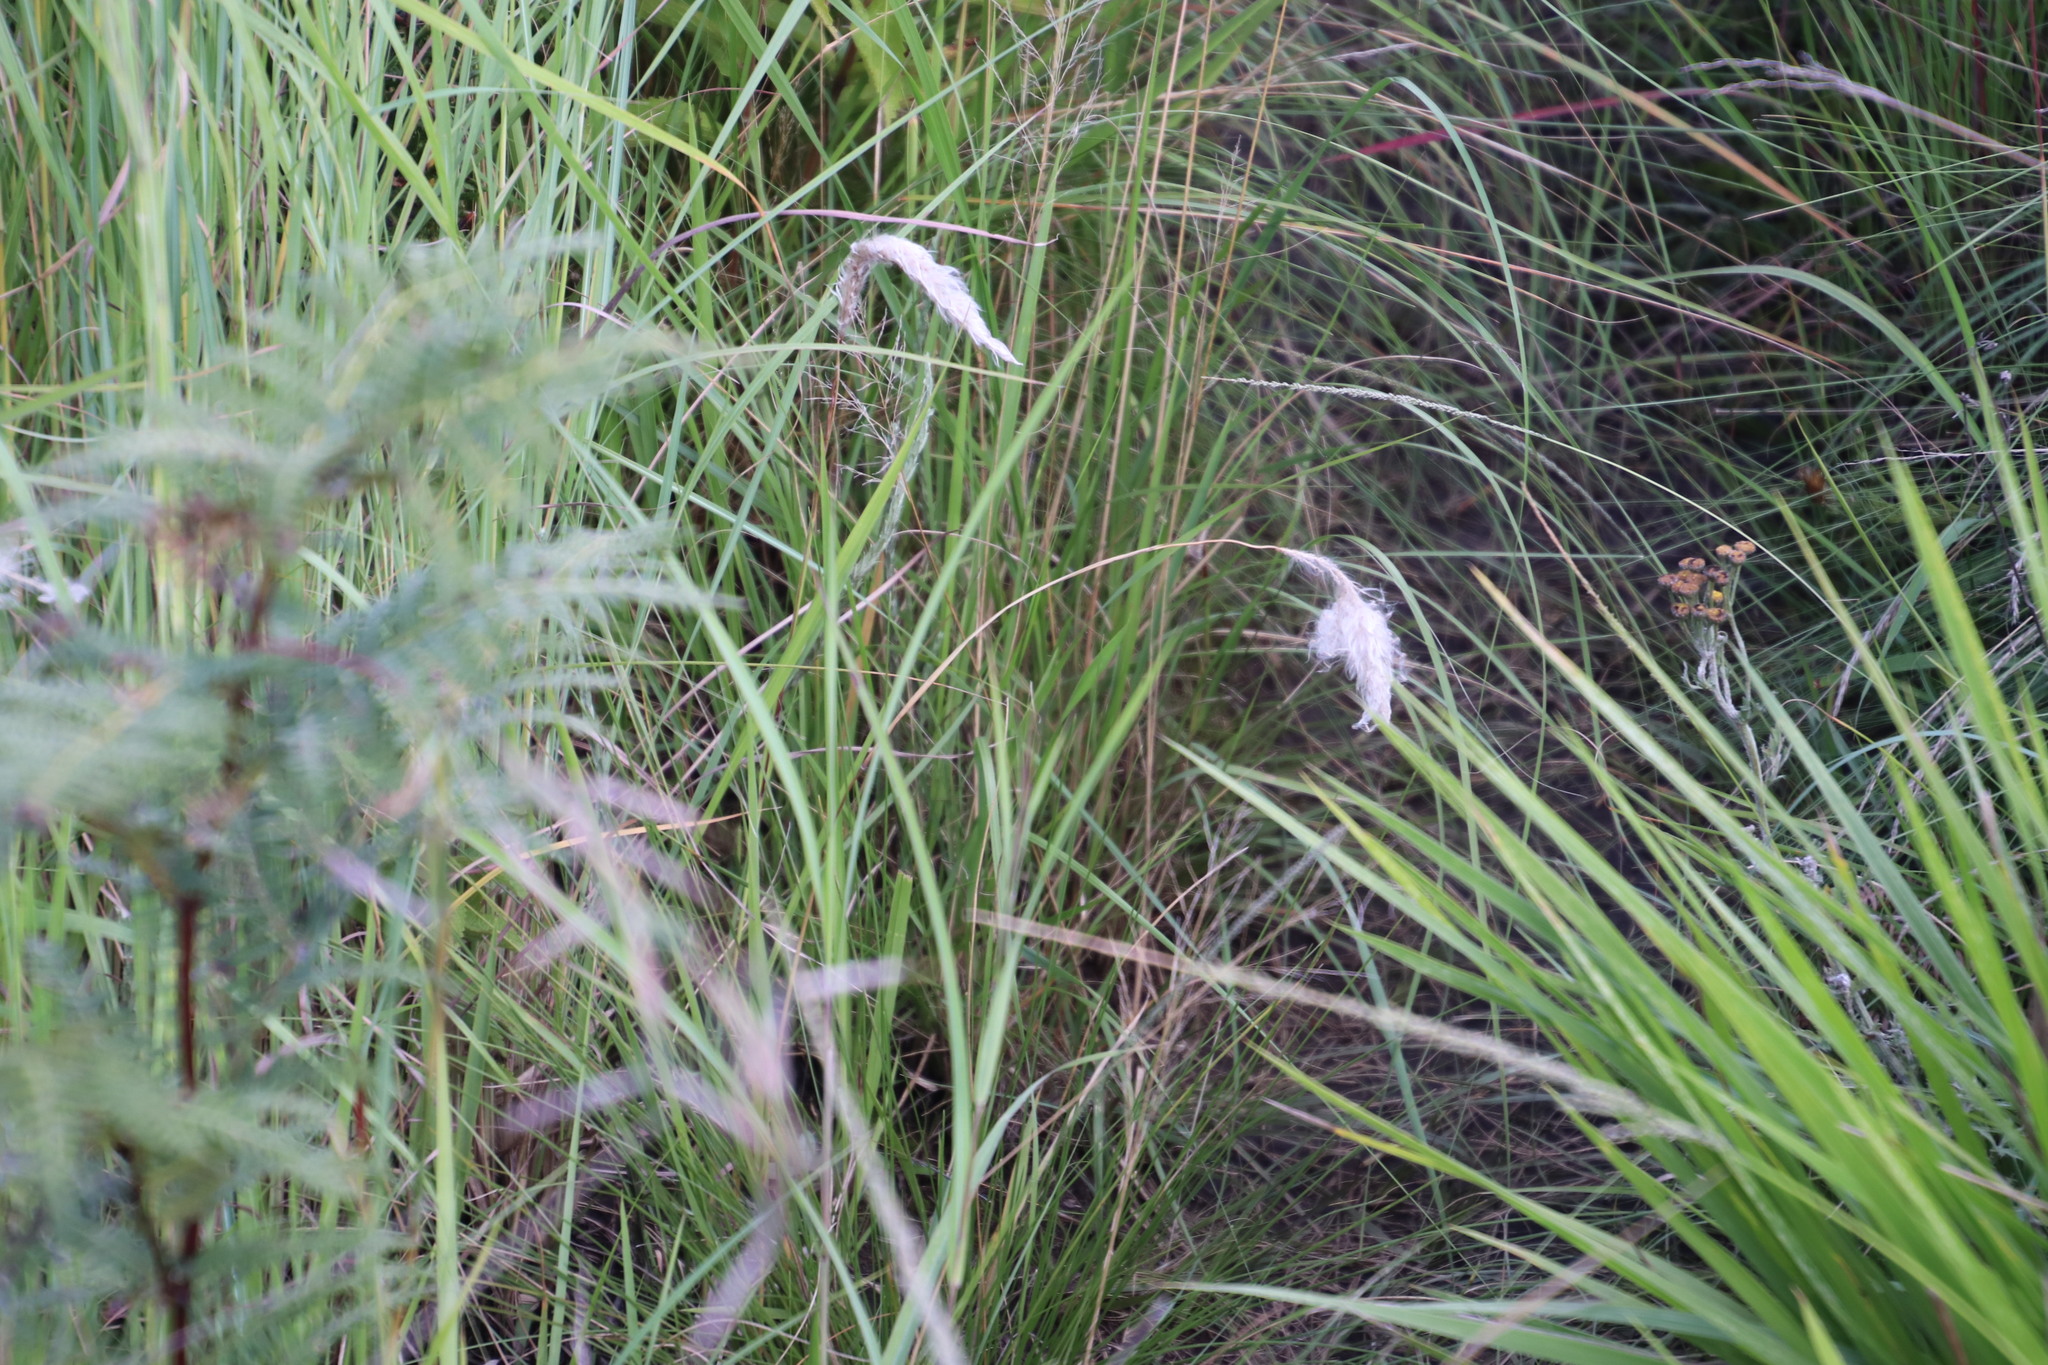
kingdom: Plantae
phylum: Tracheophyta
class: Liliopsida
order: Poales
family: Poaceae
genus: Imperata
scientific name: Imperata cylindrica
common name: Cogongrass
